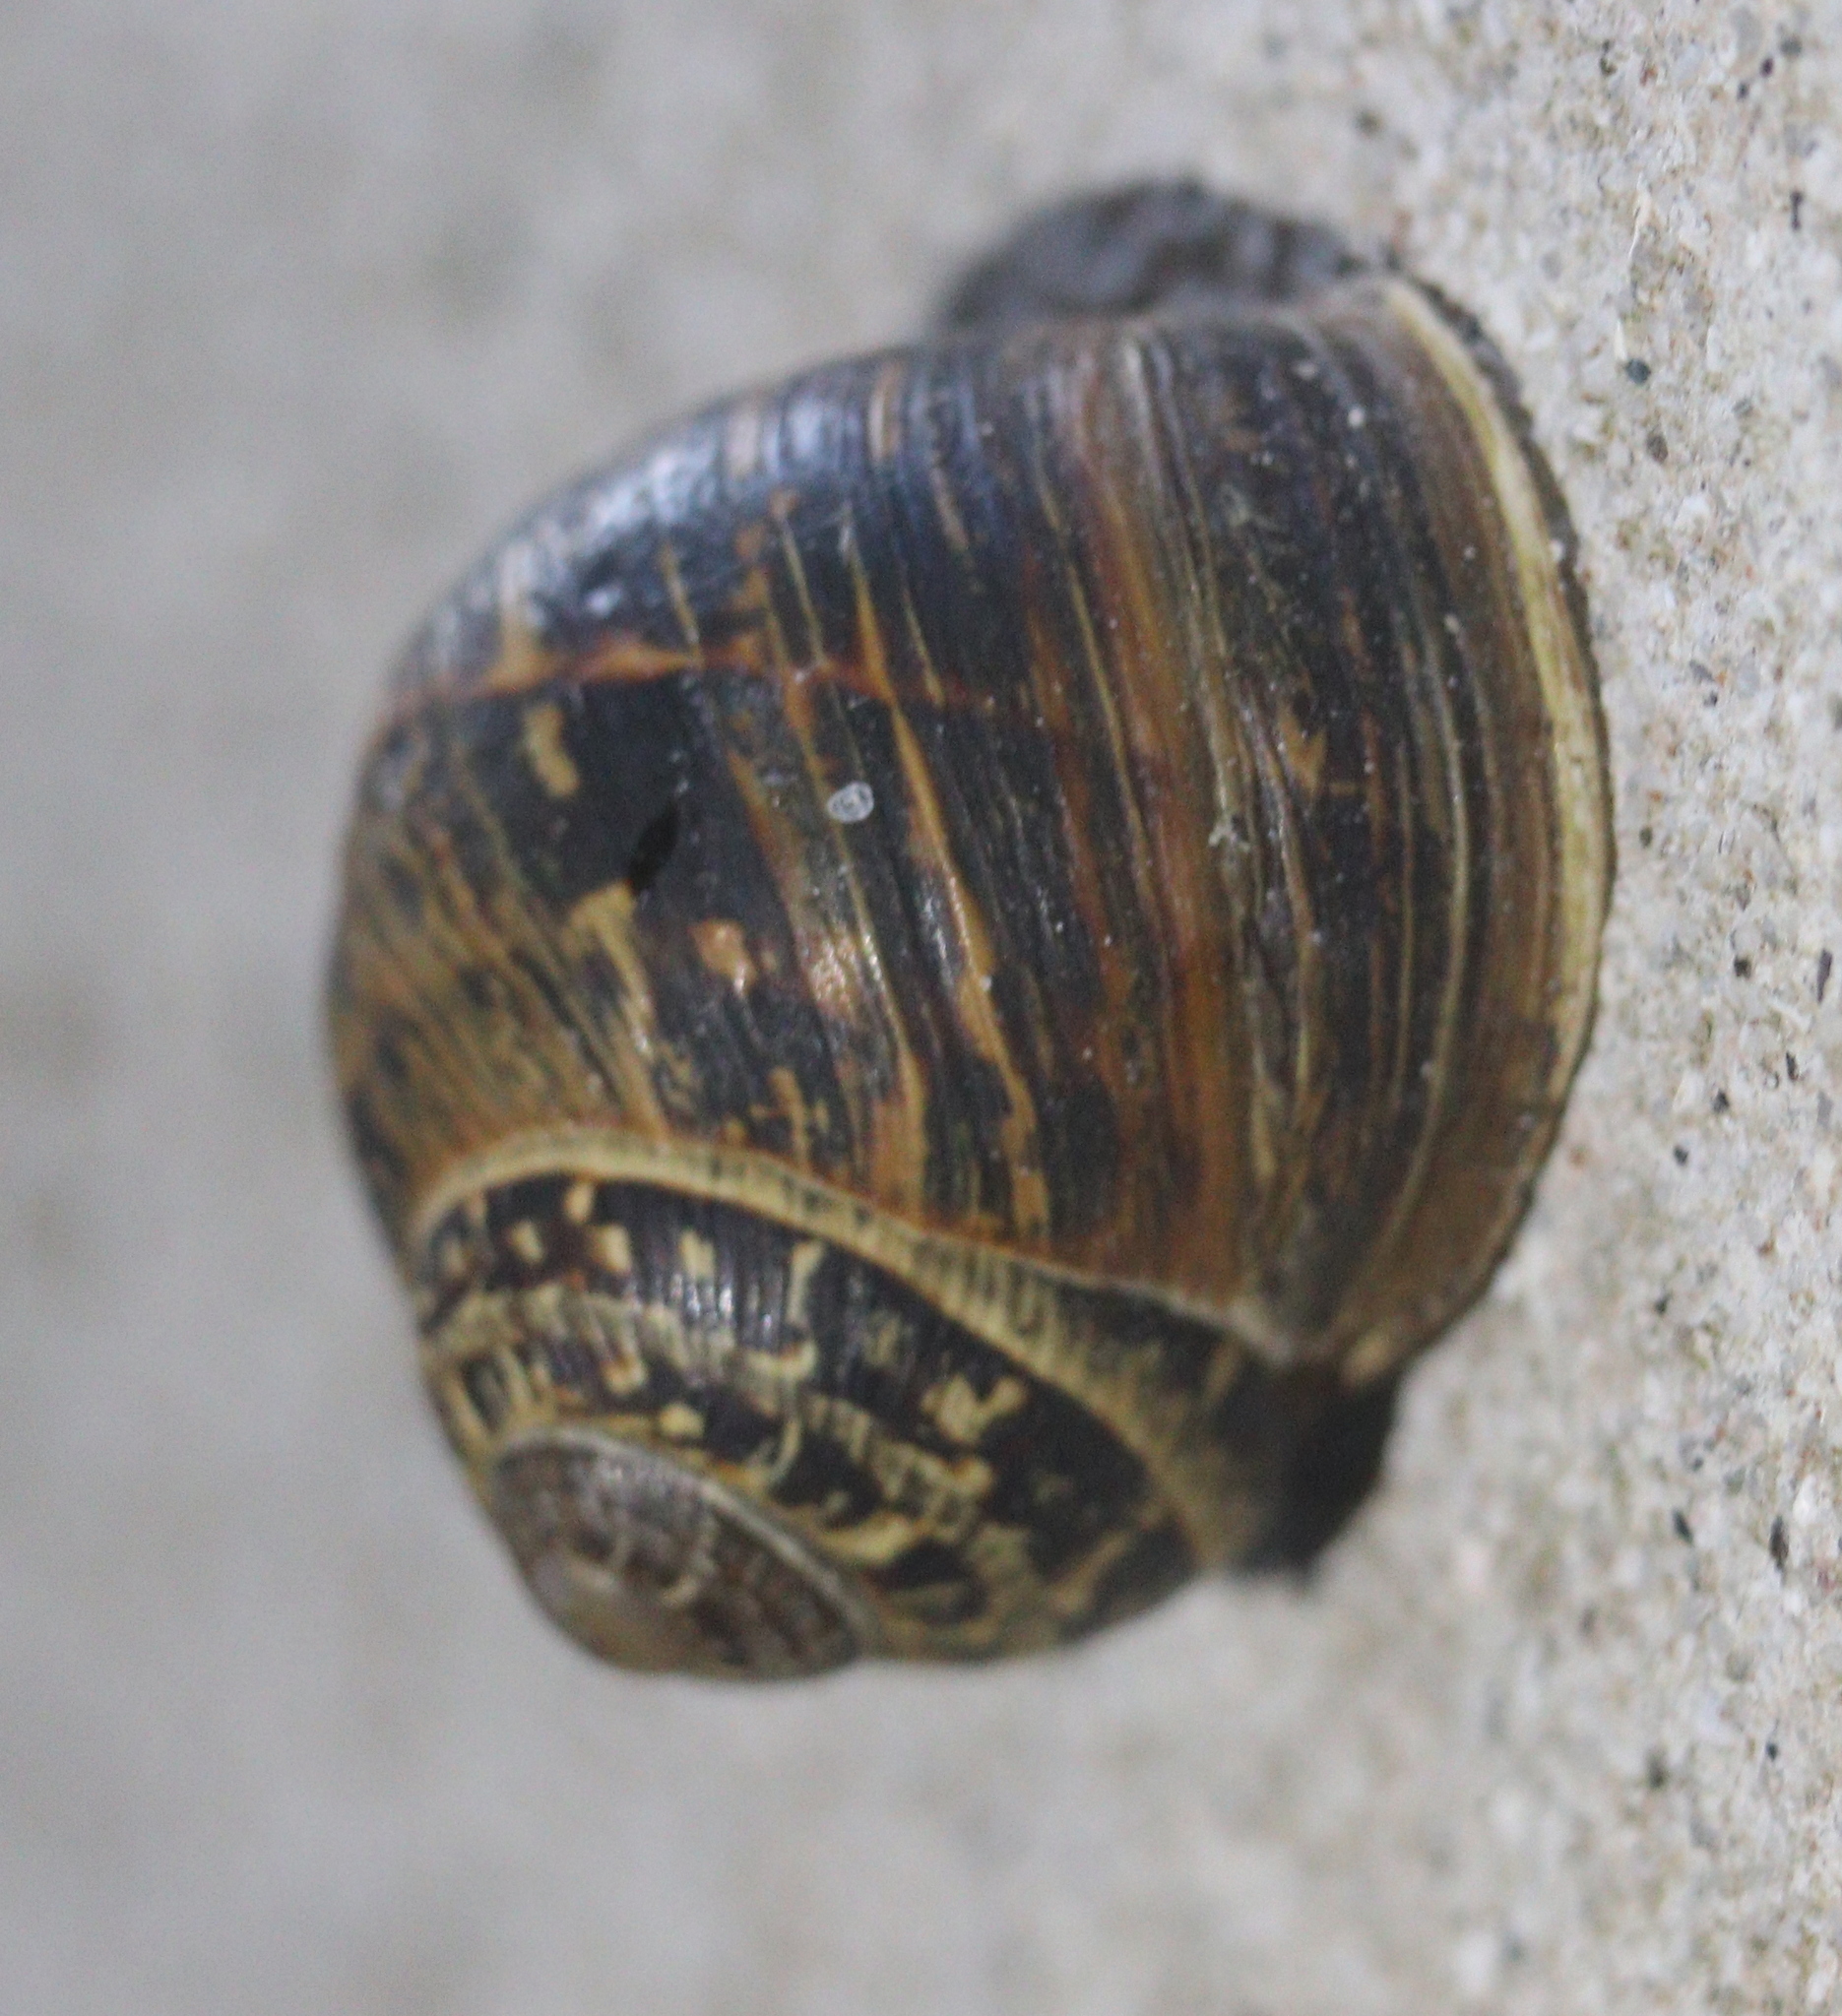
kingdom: Animalia
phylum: Mollusca
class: Gastropoda
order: Stylommatophora
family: Helicidae
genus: Cornu
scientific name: Cornu aspersum
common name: Brown garden snail
